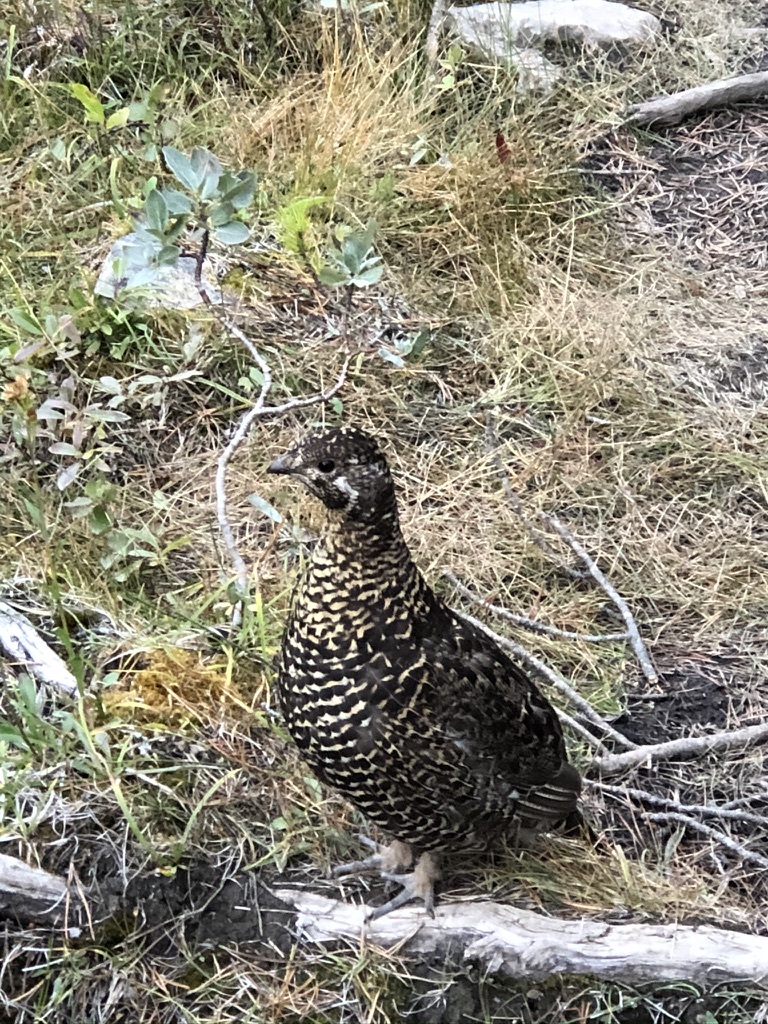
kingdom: Animalia
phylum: Chordata
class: Aves
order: Galliformes
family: Phasianidae
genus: Canachites
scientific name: Canachites canadensis
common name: Spruce grouse
